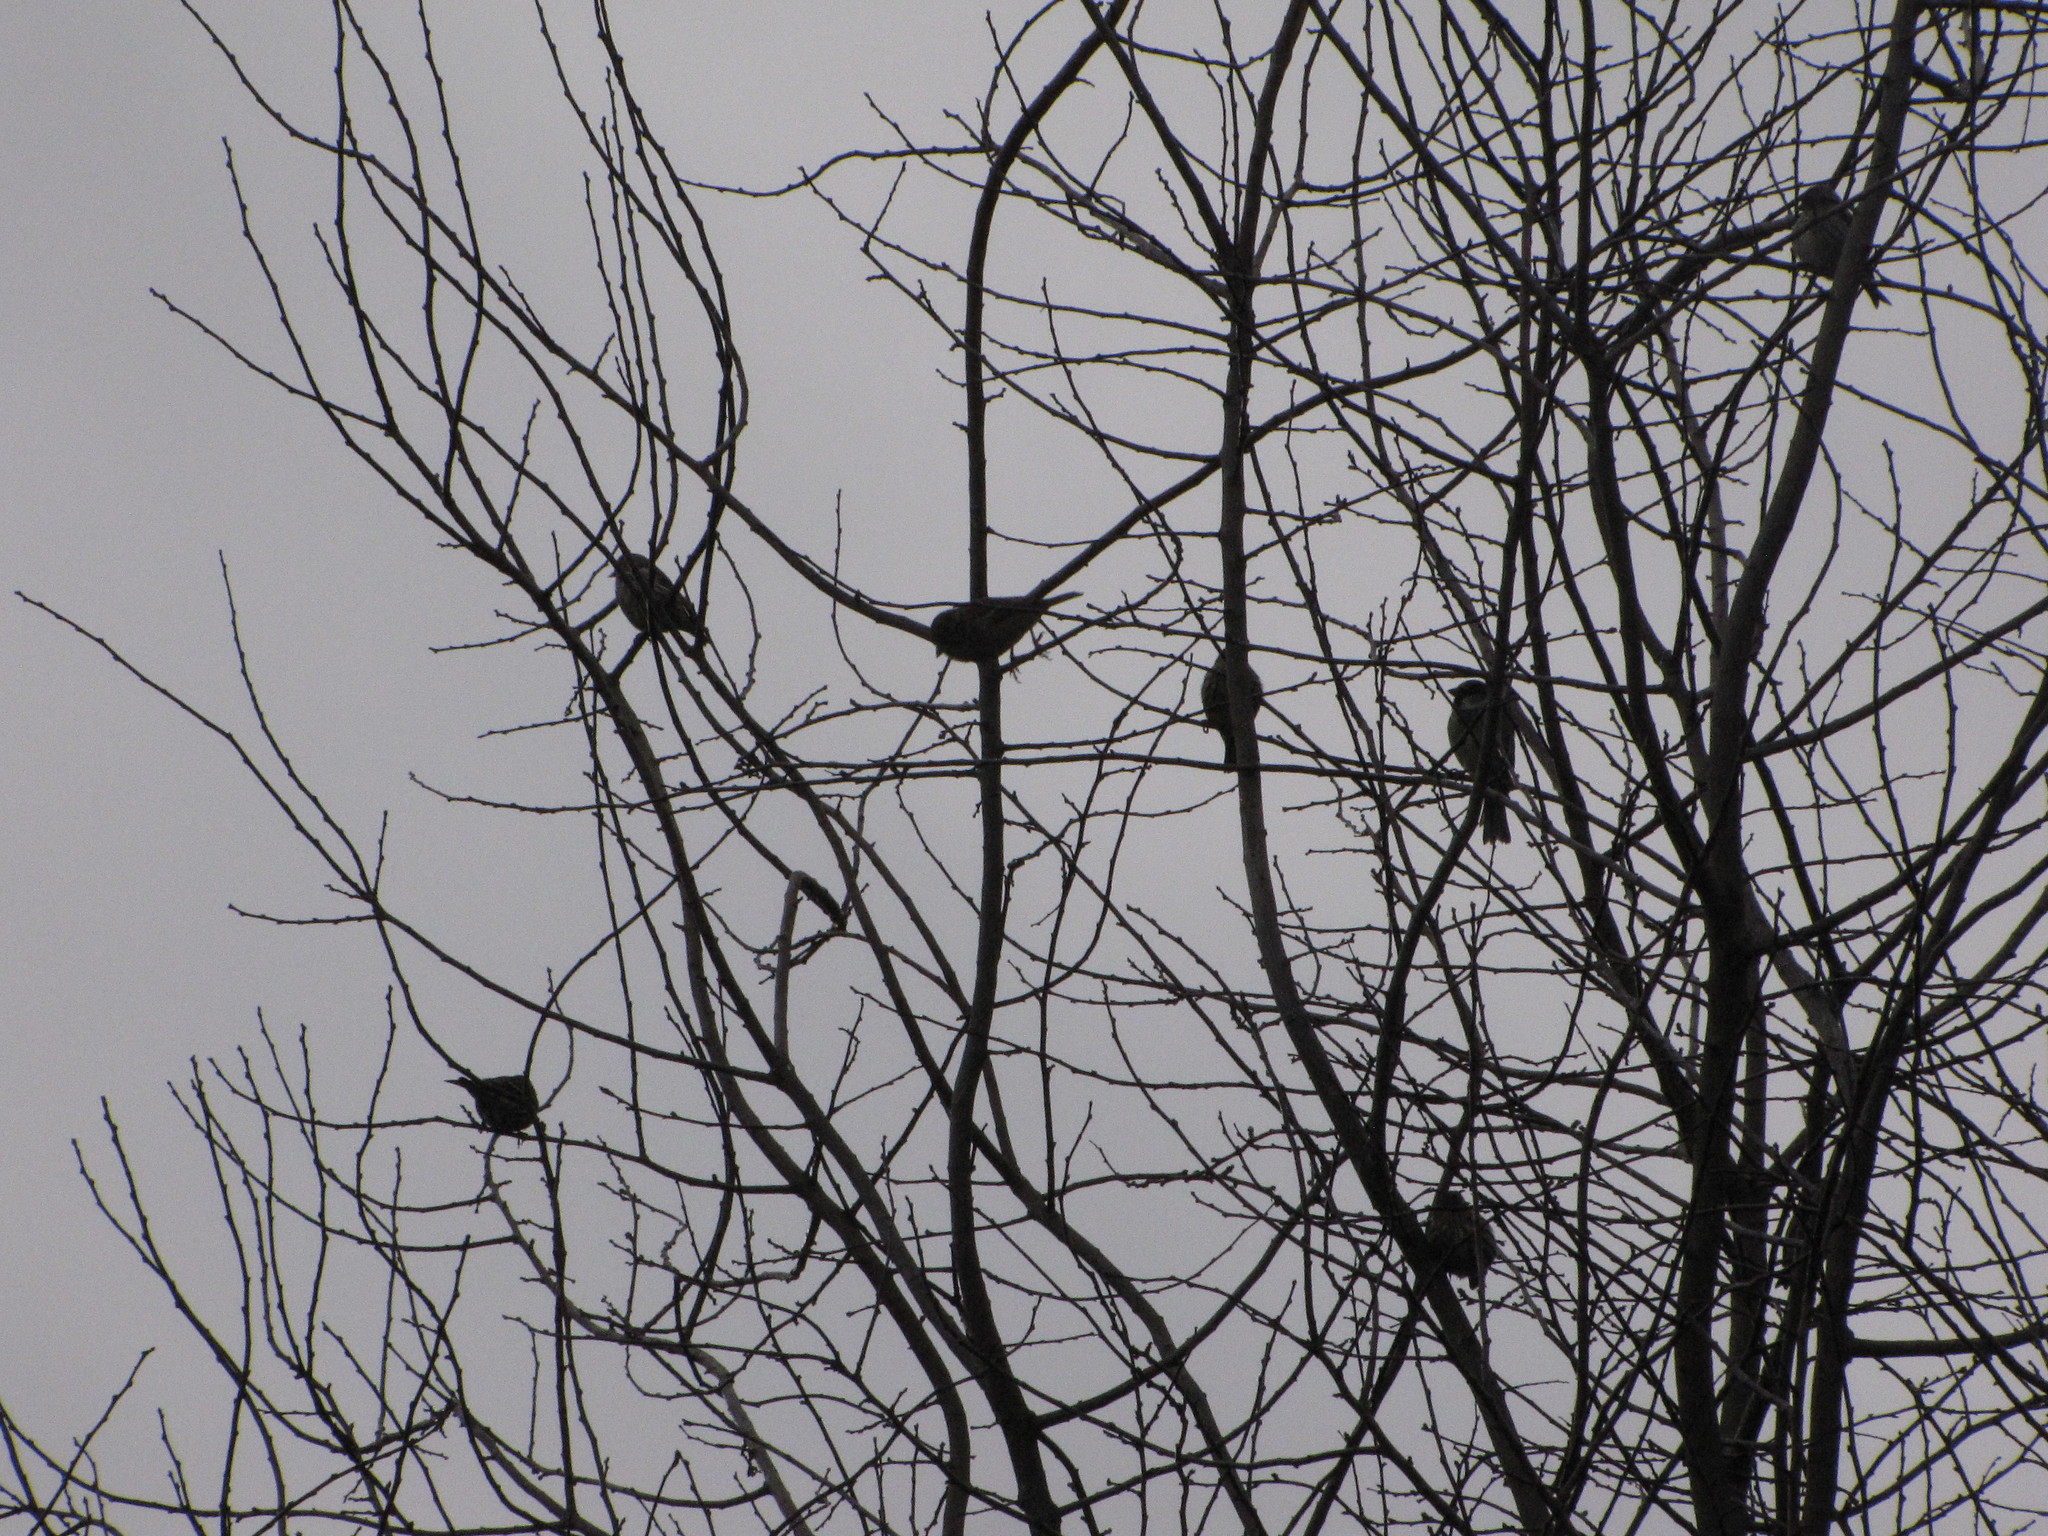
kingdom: Animalia
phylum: Chordata
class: Aves
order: Passeriformes
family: Fringillidae
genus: Spinus
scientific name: Spinus pinus
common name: Pine siskin
